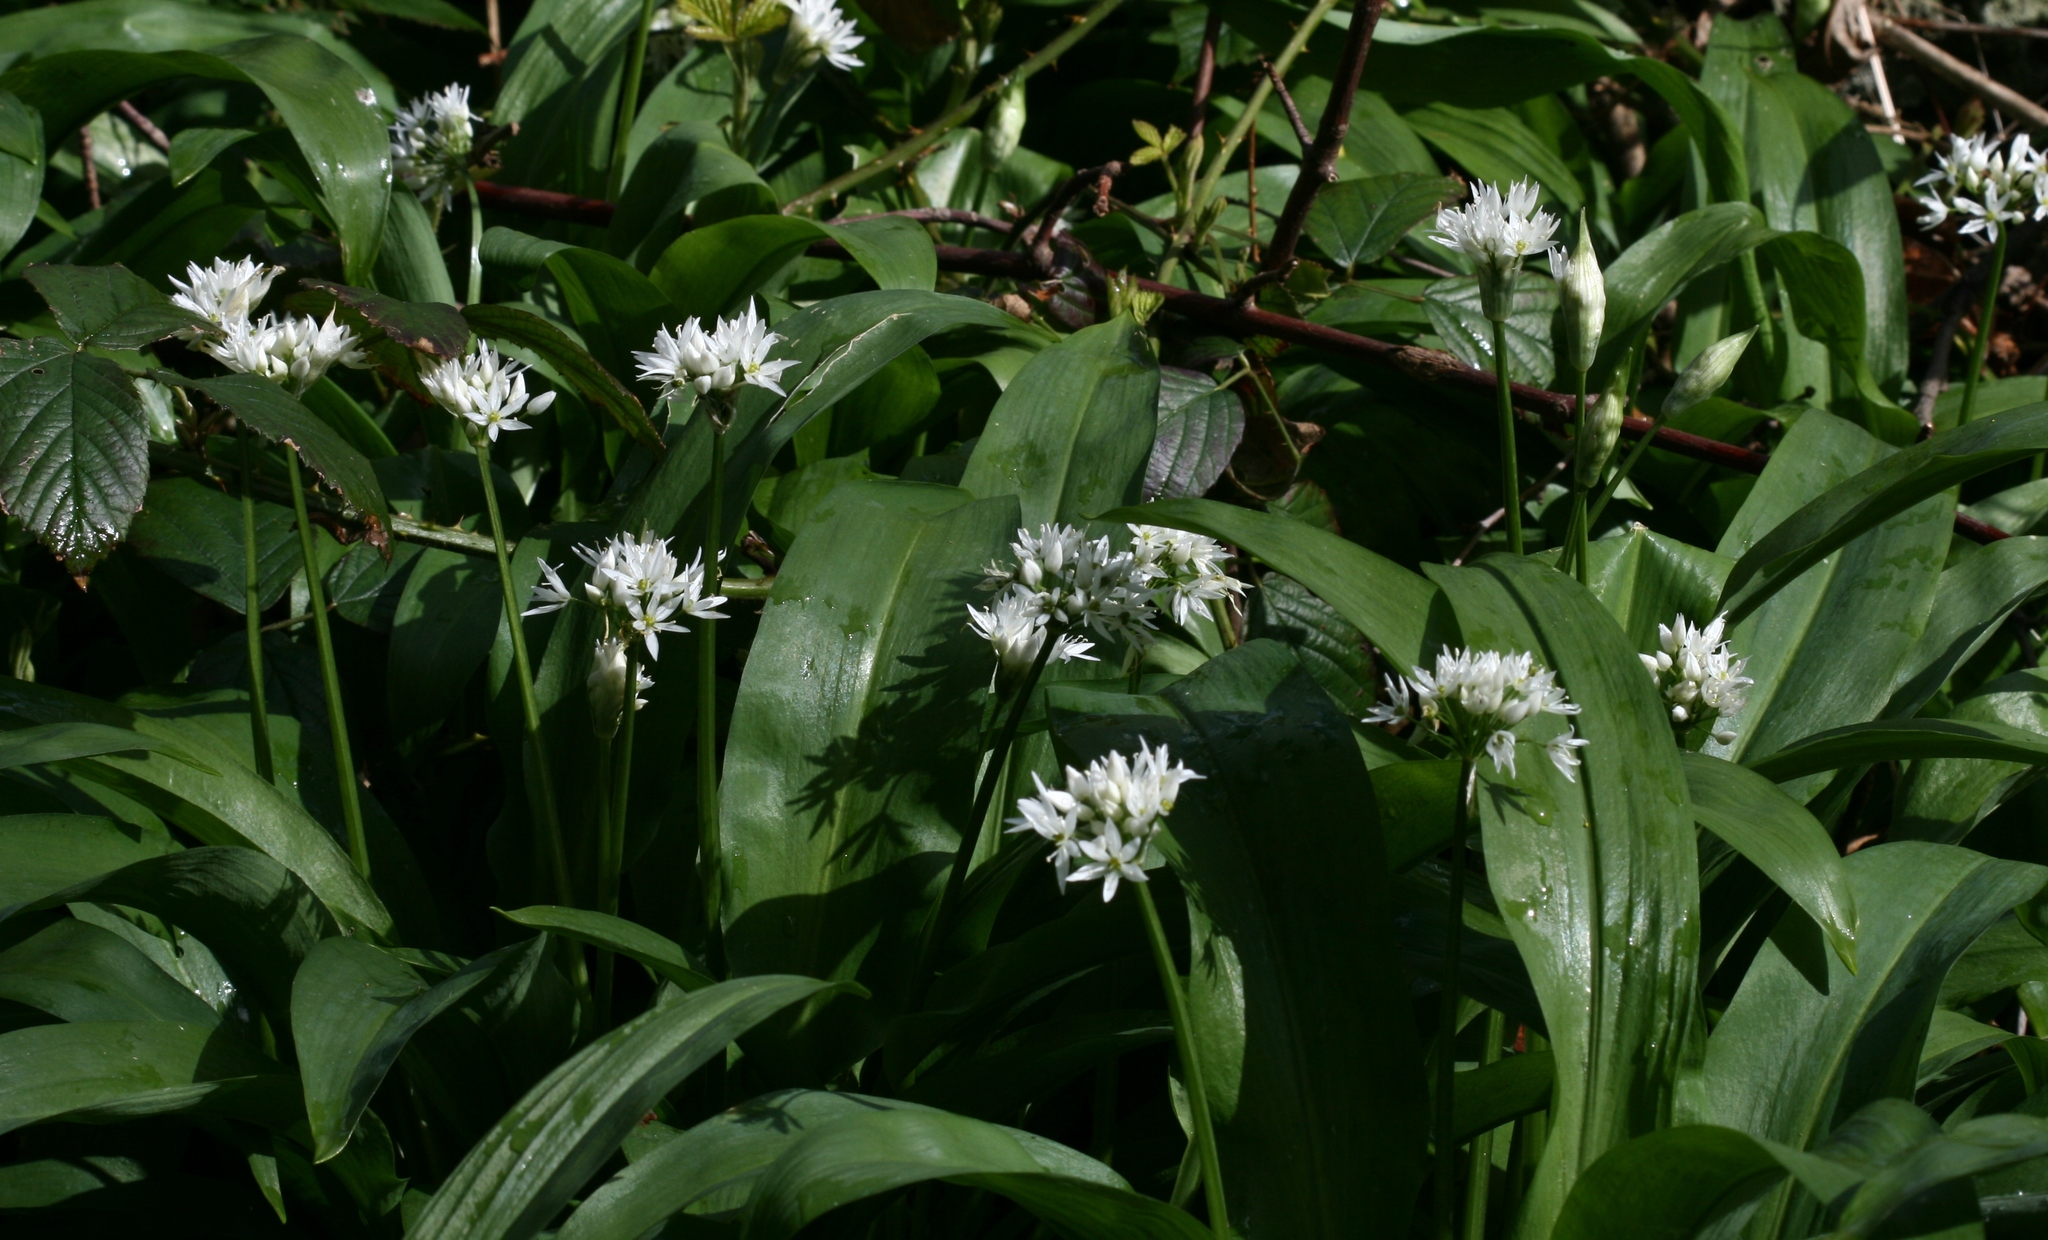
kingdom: Plantae
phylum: Tracheophyta
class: Liliopsida
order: Asparagales
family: Amaryllidaceae
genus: Allium
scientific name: Allium ursinum
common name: Ramsons
